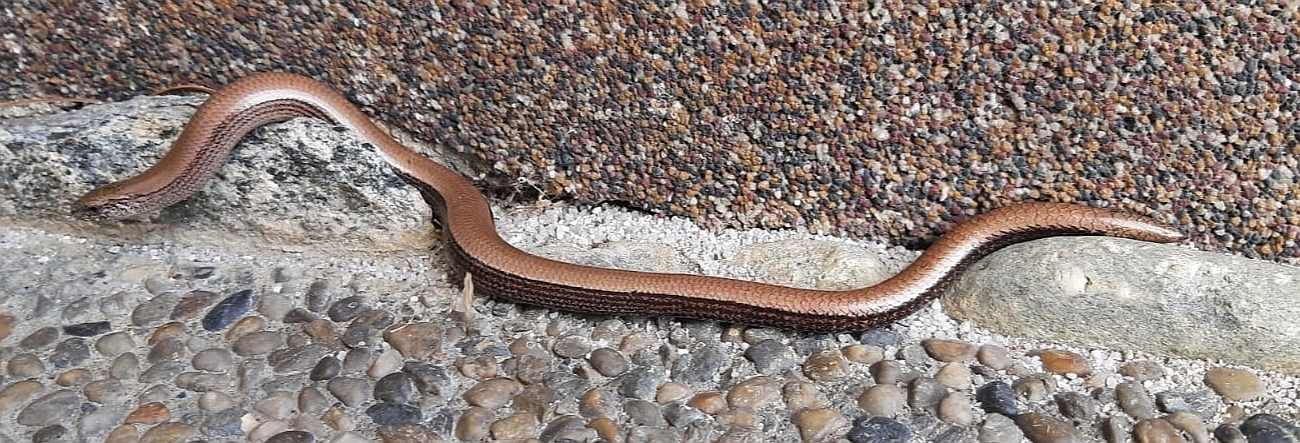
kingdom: Animalia
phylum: Chordata
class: Squamata
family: Anguidae
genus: Anguis
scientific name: Anguis fragilis
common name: Slow worm
